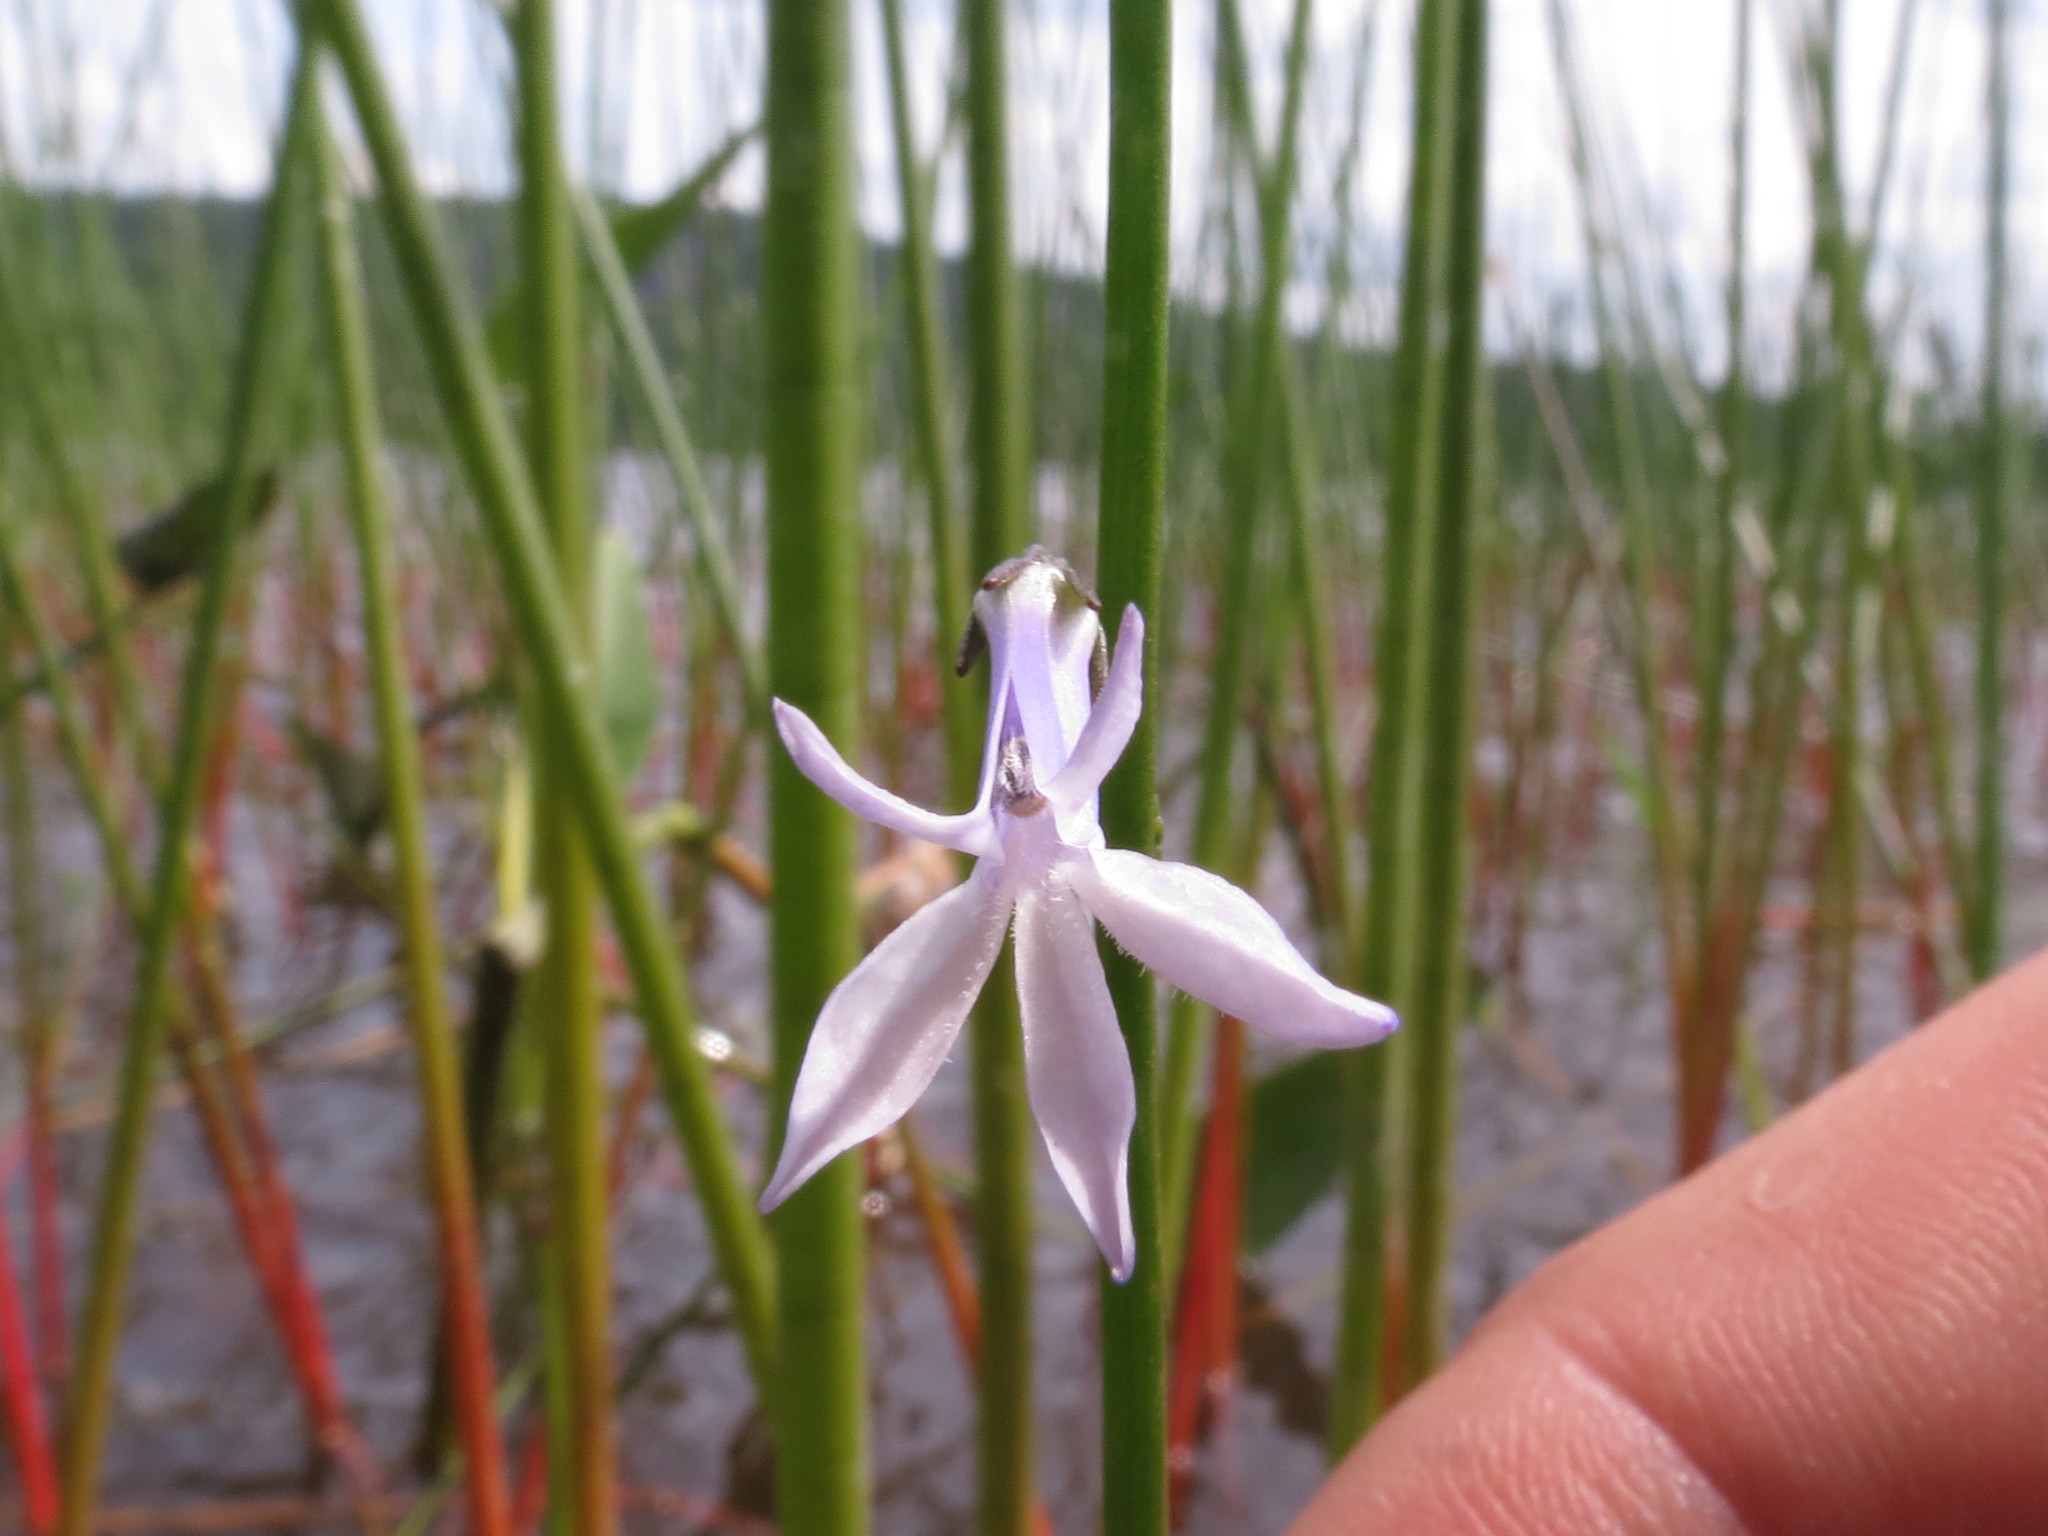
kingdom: Plantae
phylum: Tracheophyta
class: Magnoliopsida
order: Asterales
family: Campanulaceae
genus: Lobelia
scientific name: Lobelia dortmanna
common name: Water lobelia
